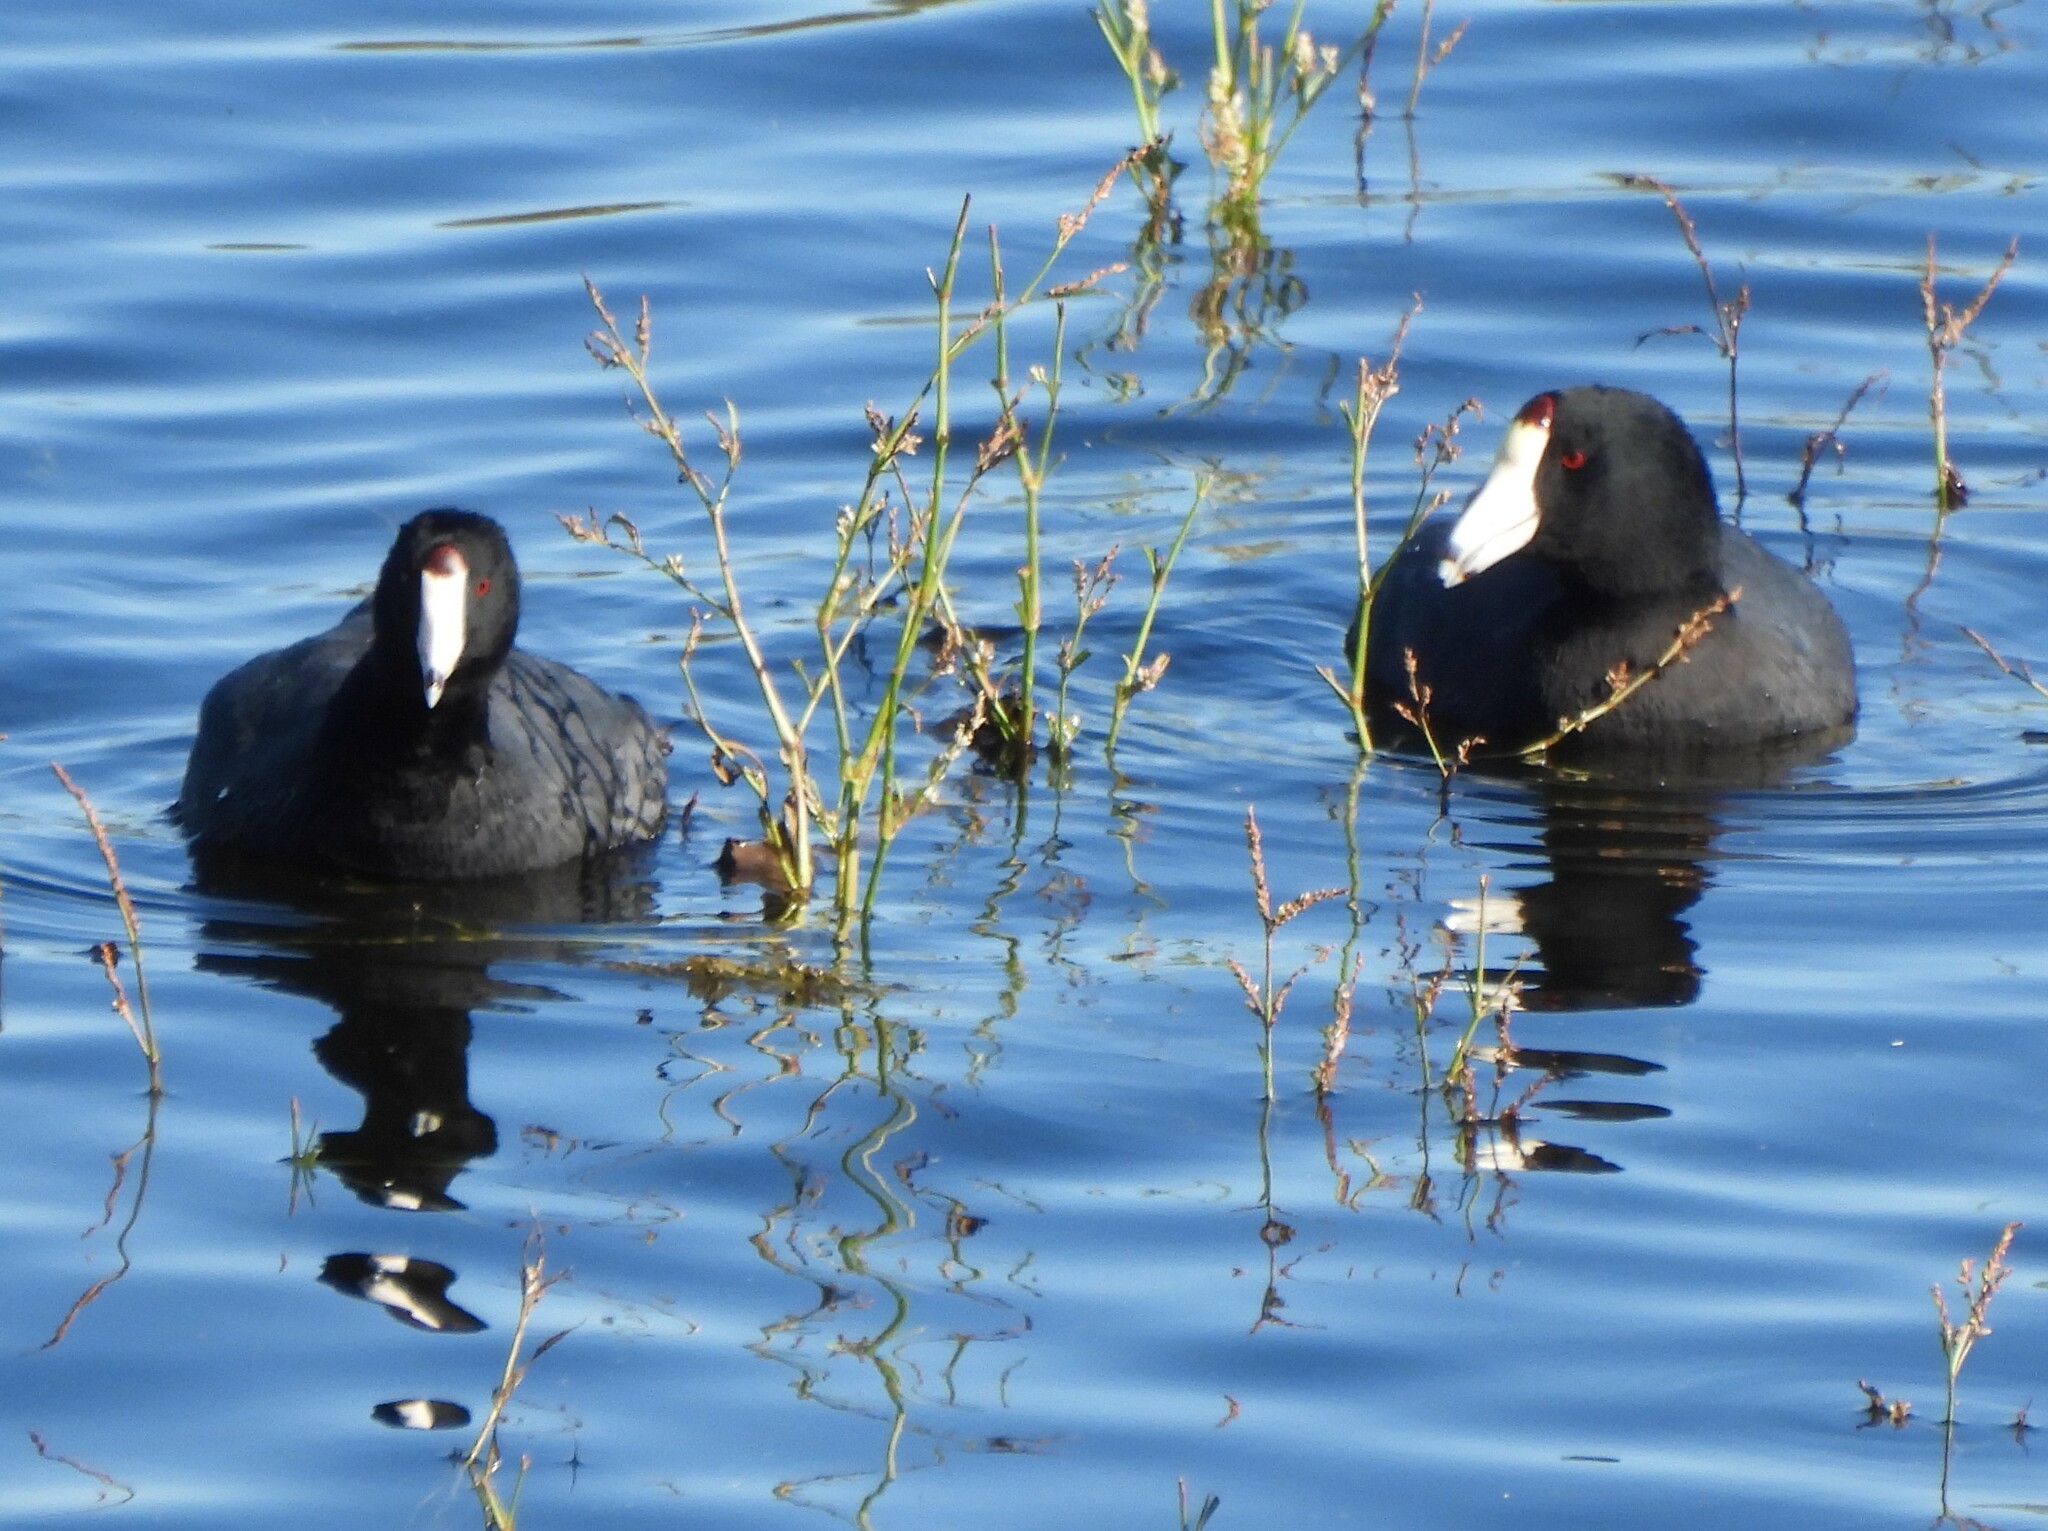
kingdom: Animalia
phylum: Chordata
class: Aves
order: Gruiformes
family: Rallidae
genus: Fulica
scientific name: Fulica americana
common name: American coot
